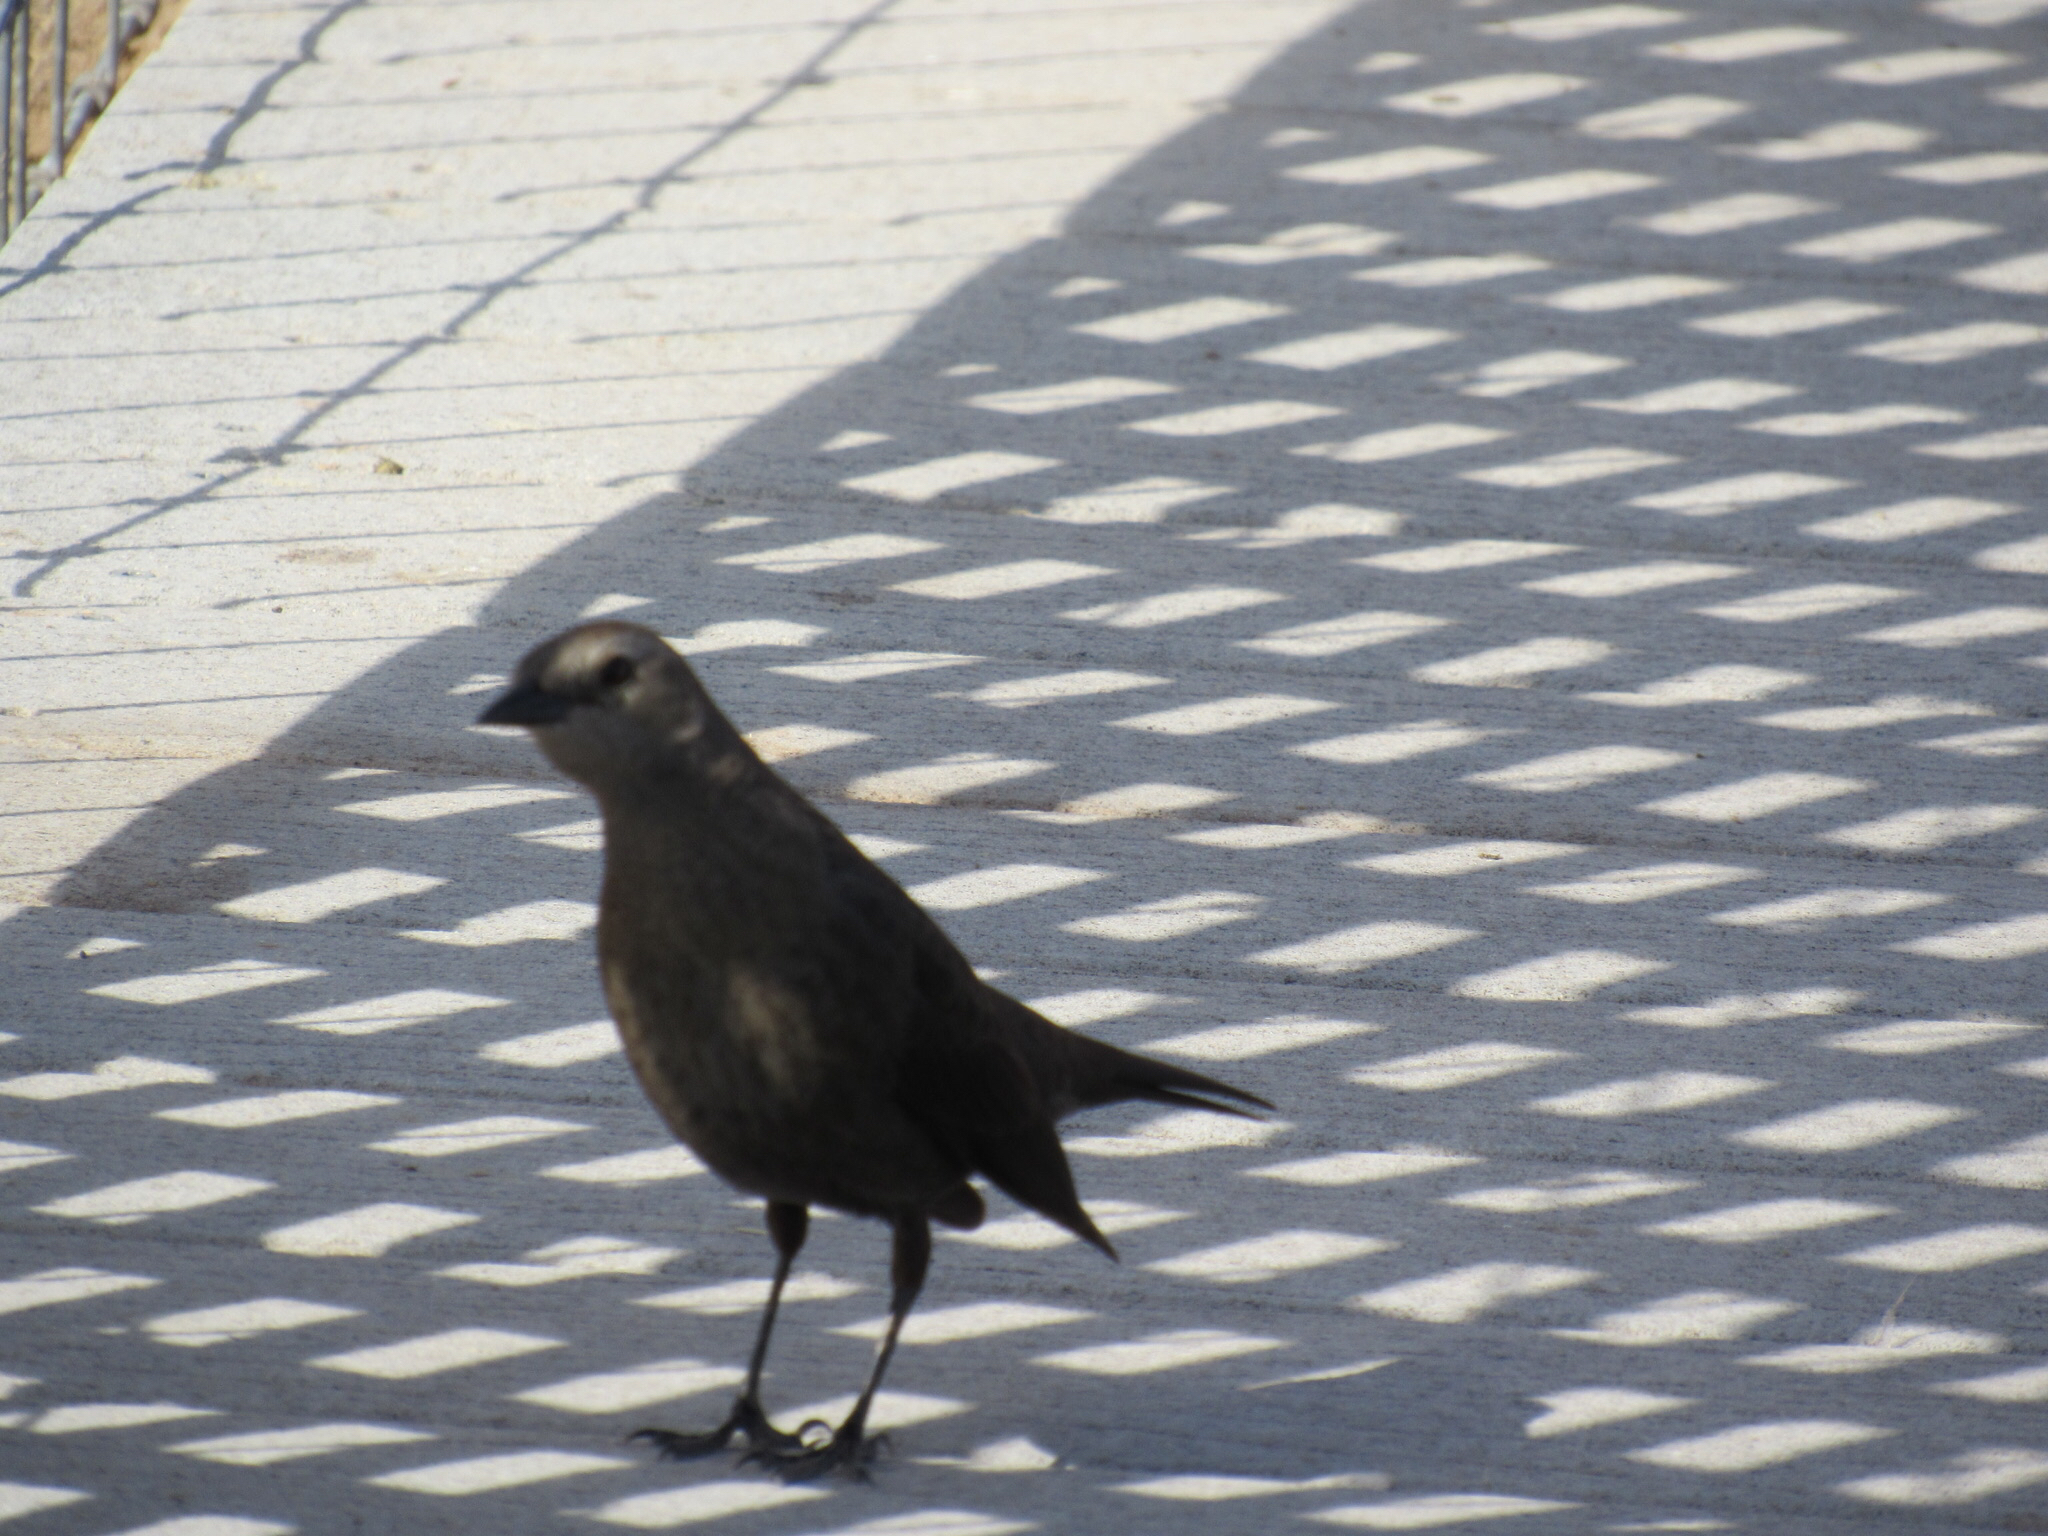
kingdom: Animalia
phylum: Chordata
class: Aves
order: Passeriformes
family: Icteridae
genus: Euphagus
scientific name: Euphagus cyanocephalus
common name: Brewer's blackbird
